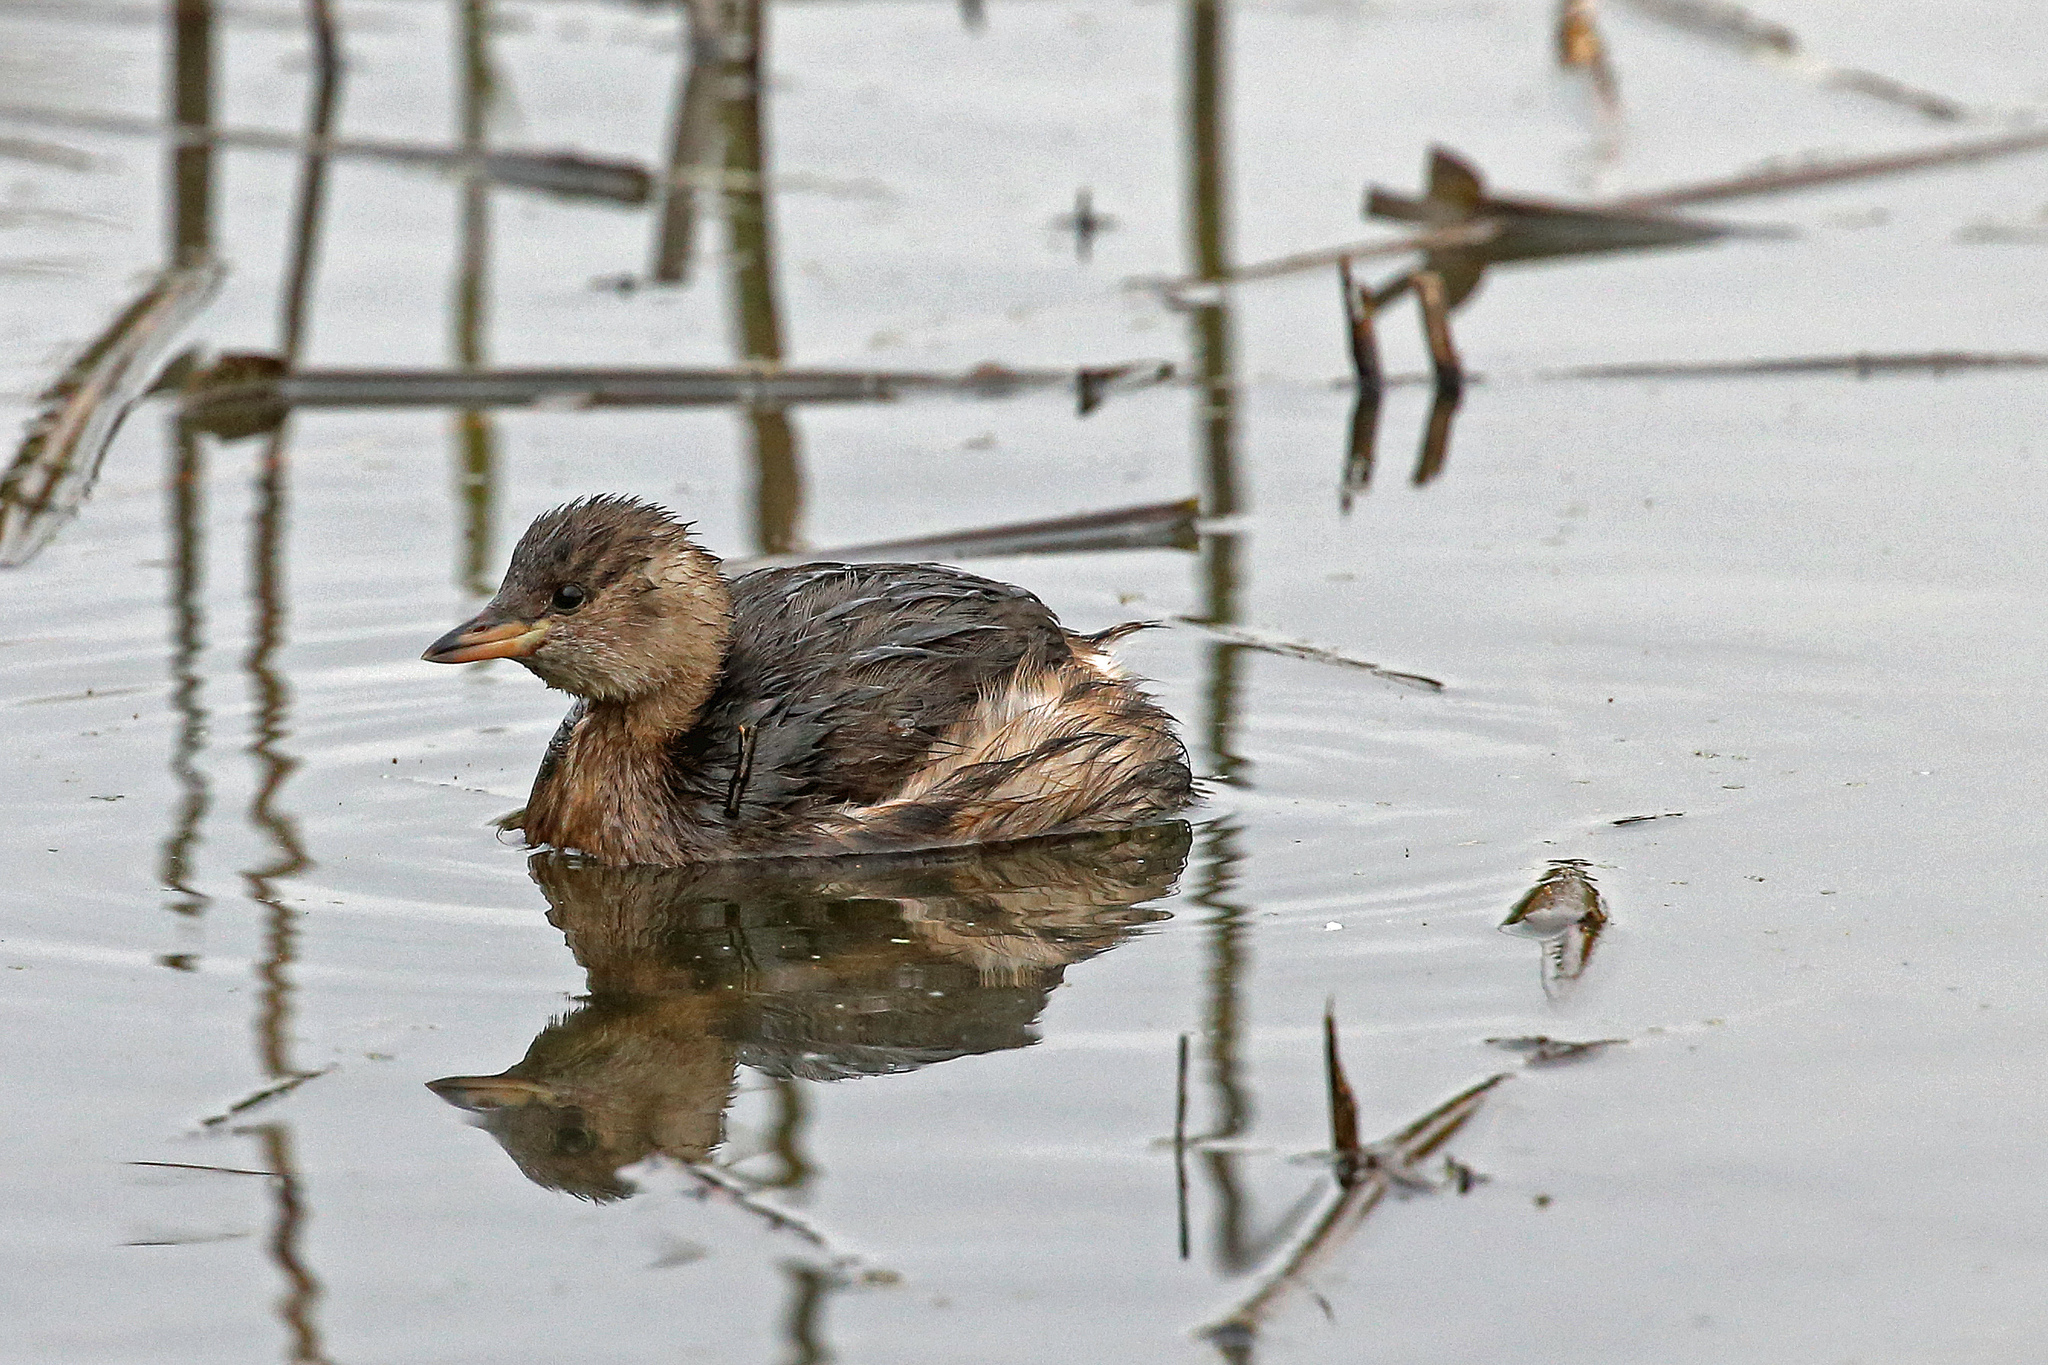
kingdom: Animalia
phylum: Chordata
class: Aves
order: Podicipediformes
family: Podicipedidae
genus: Tachybaptus
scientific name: Tachybaptus ruficollis
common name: Little grebe
